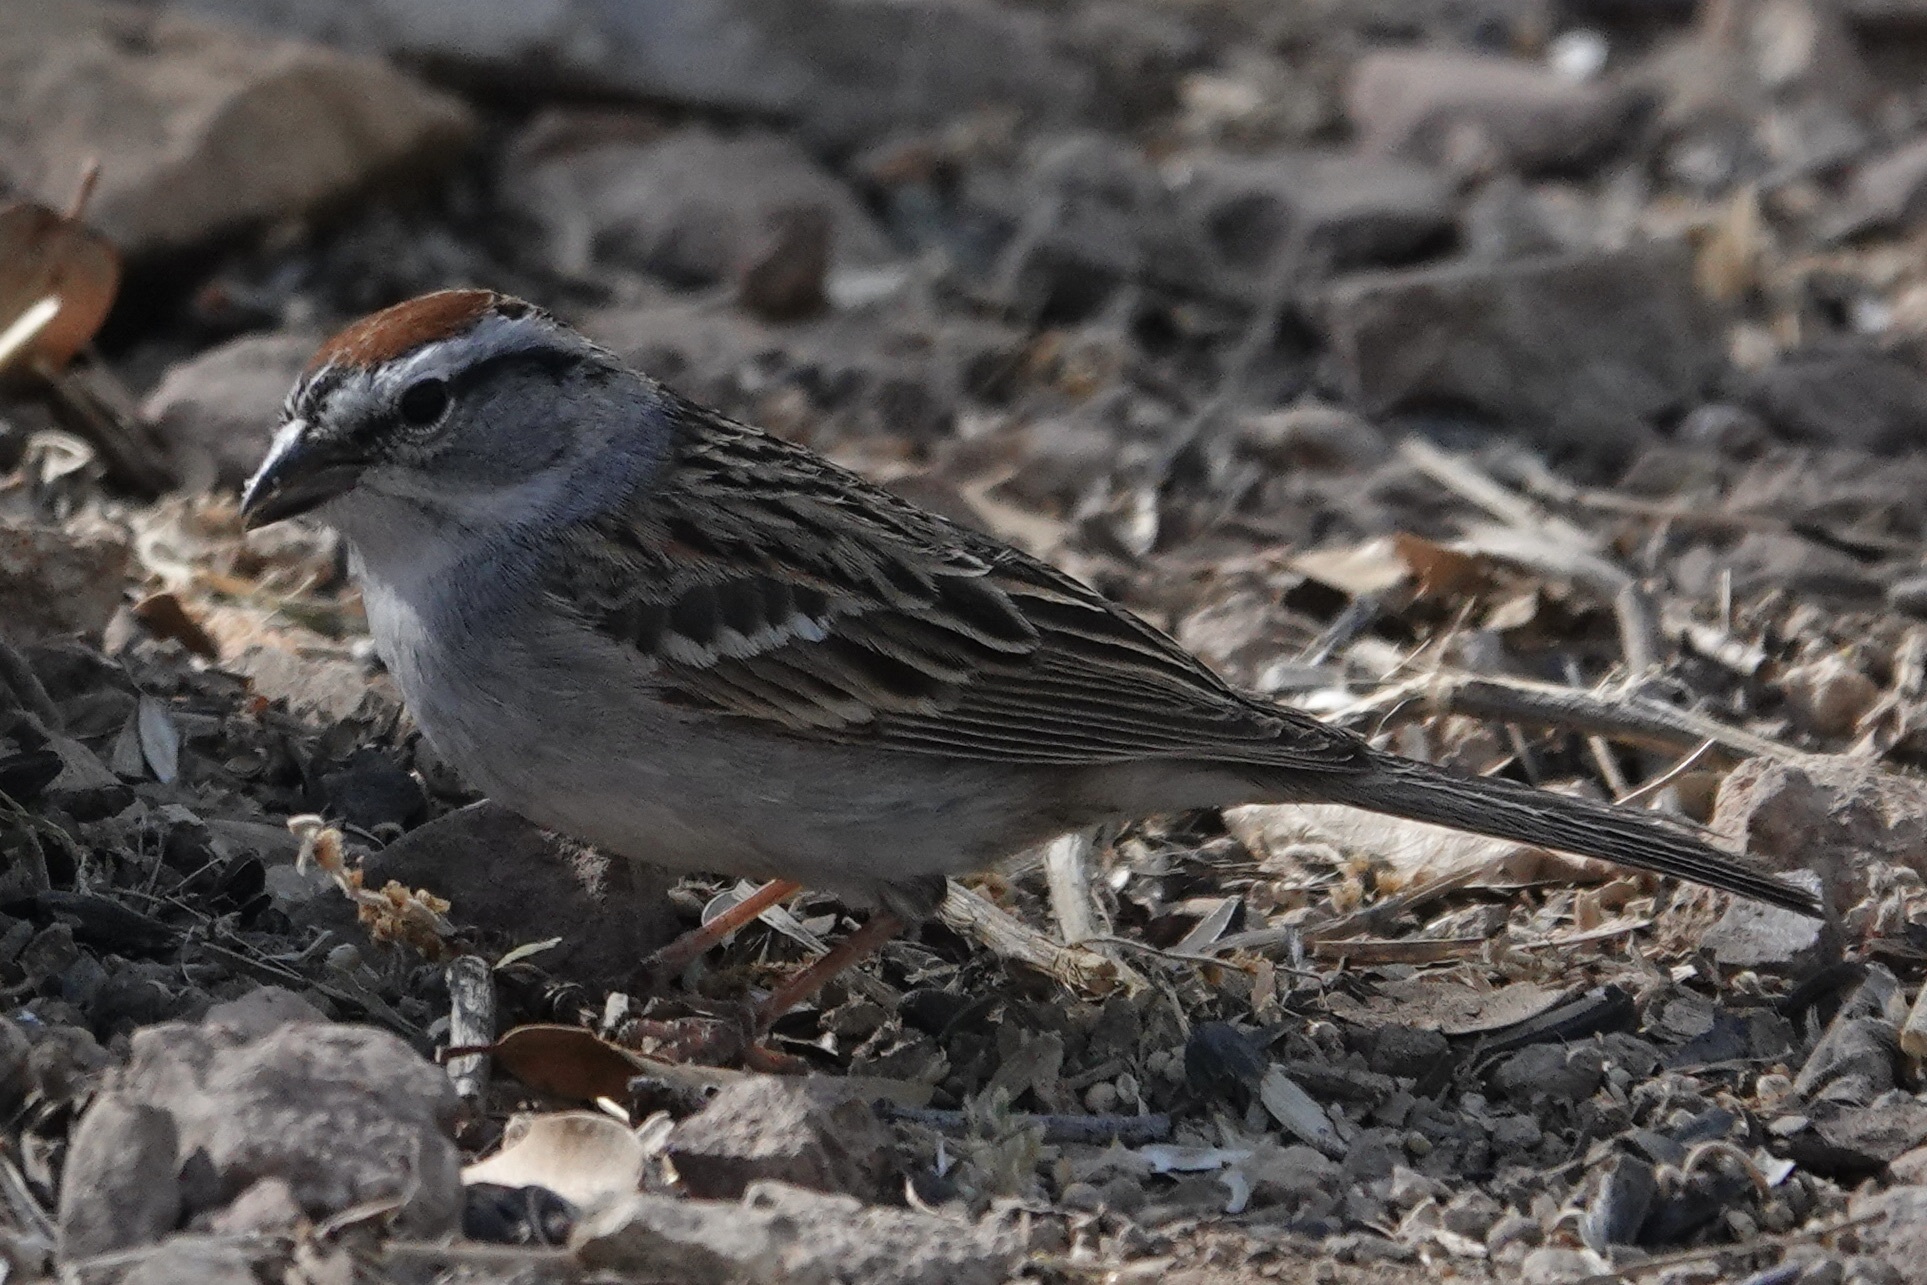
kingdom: Animalia
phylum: Chordata
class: Aves
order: Passeriformes
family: Passerellidae
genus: Spizella
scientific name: Spizella passerina
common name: Chipping sparrow
